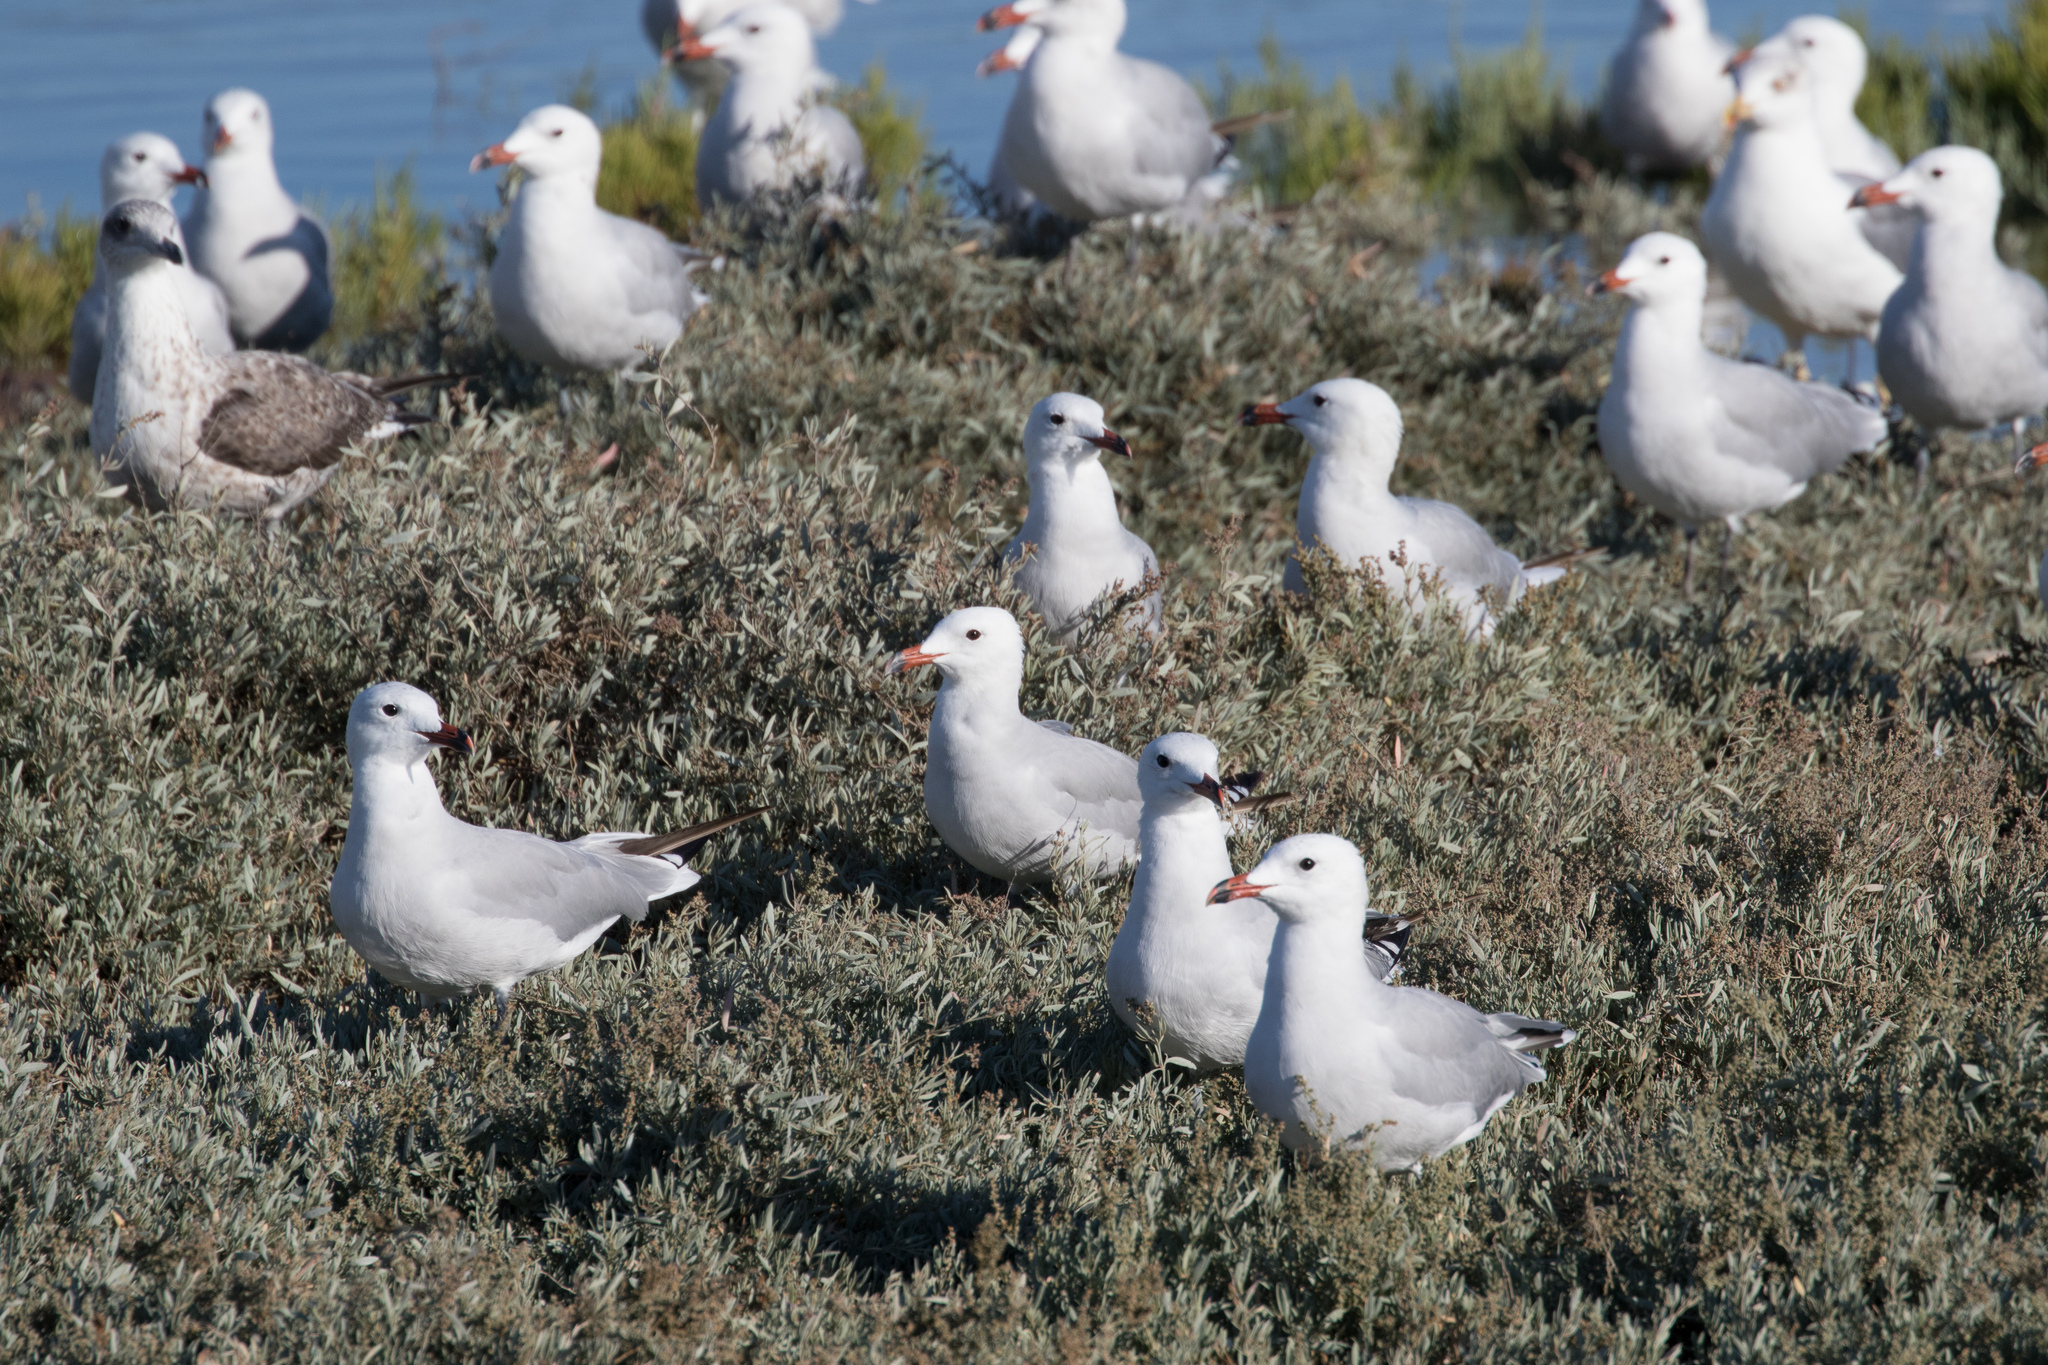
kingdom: Animalia
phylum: Chordata
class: Aves
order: Charadriiformes
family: Laridae
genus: Ichthyaetus
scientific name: Ichthyaetus audouinii
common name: Audouin's gull
